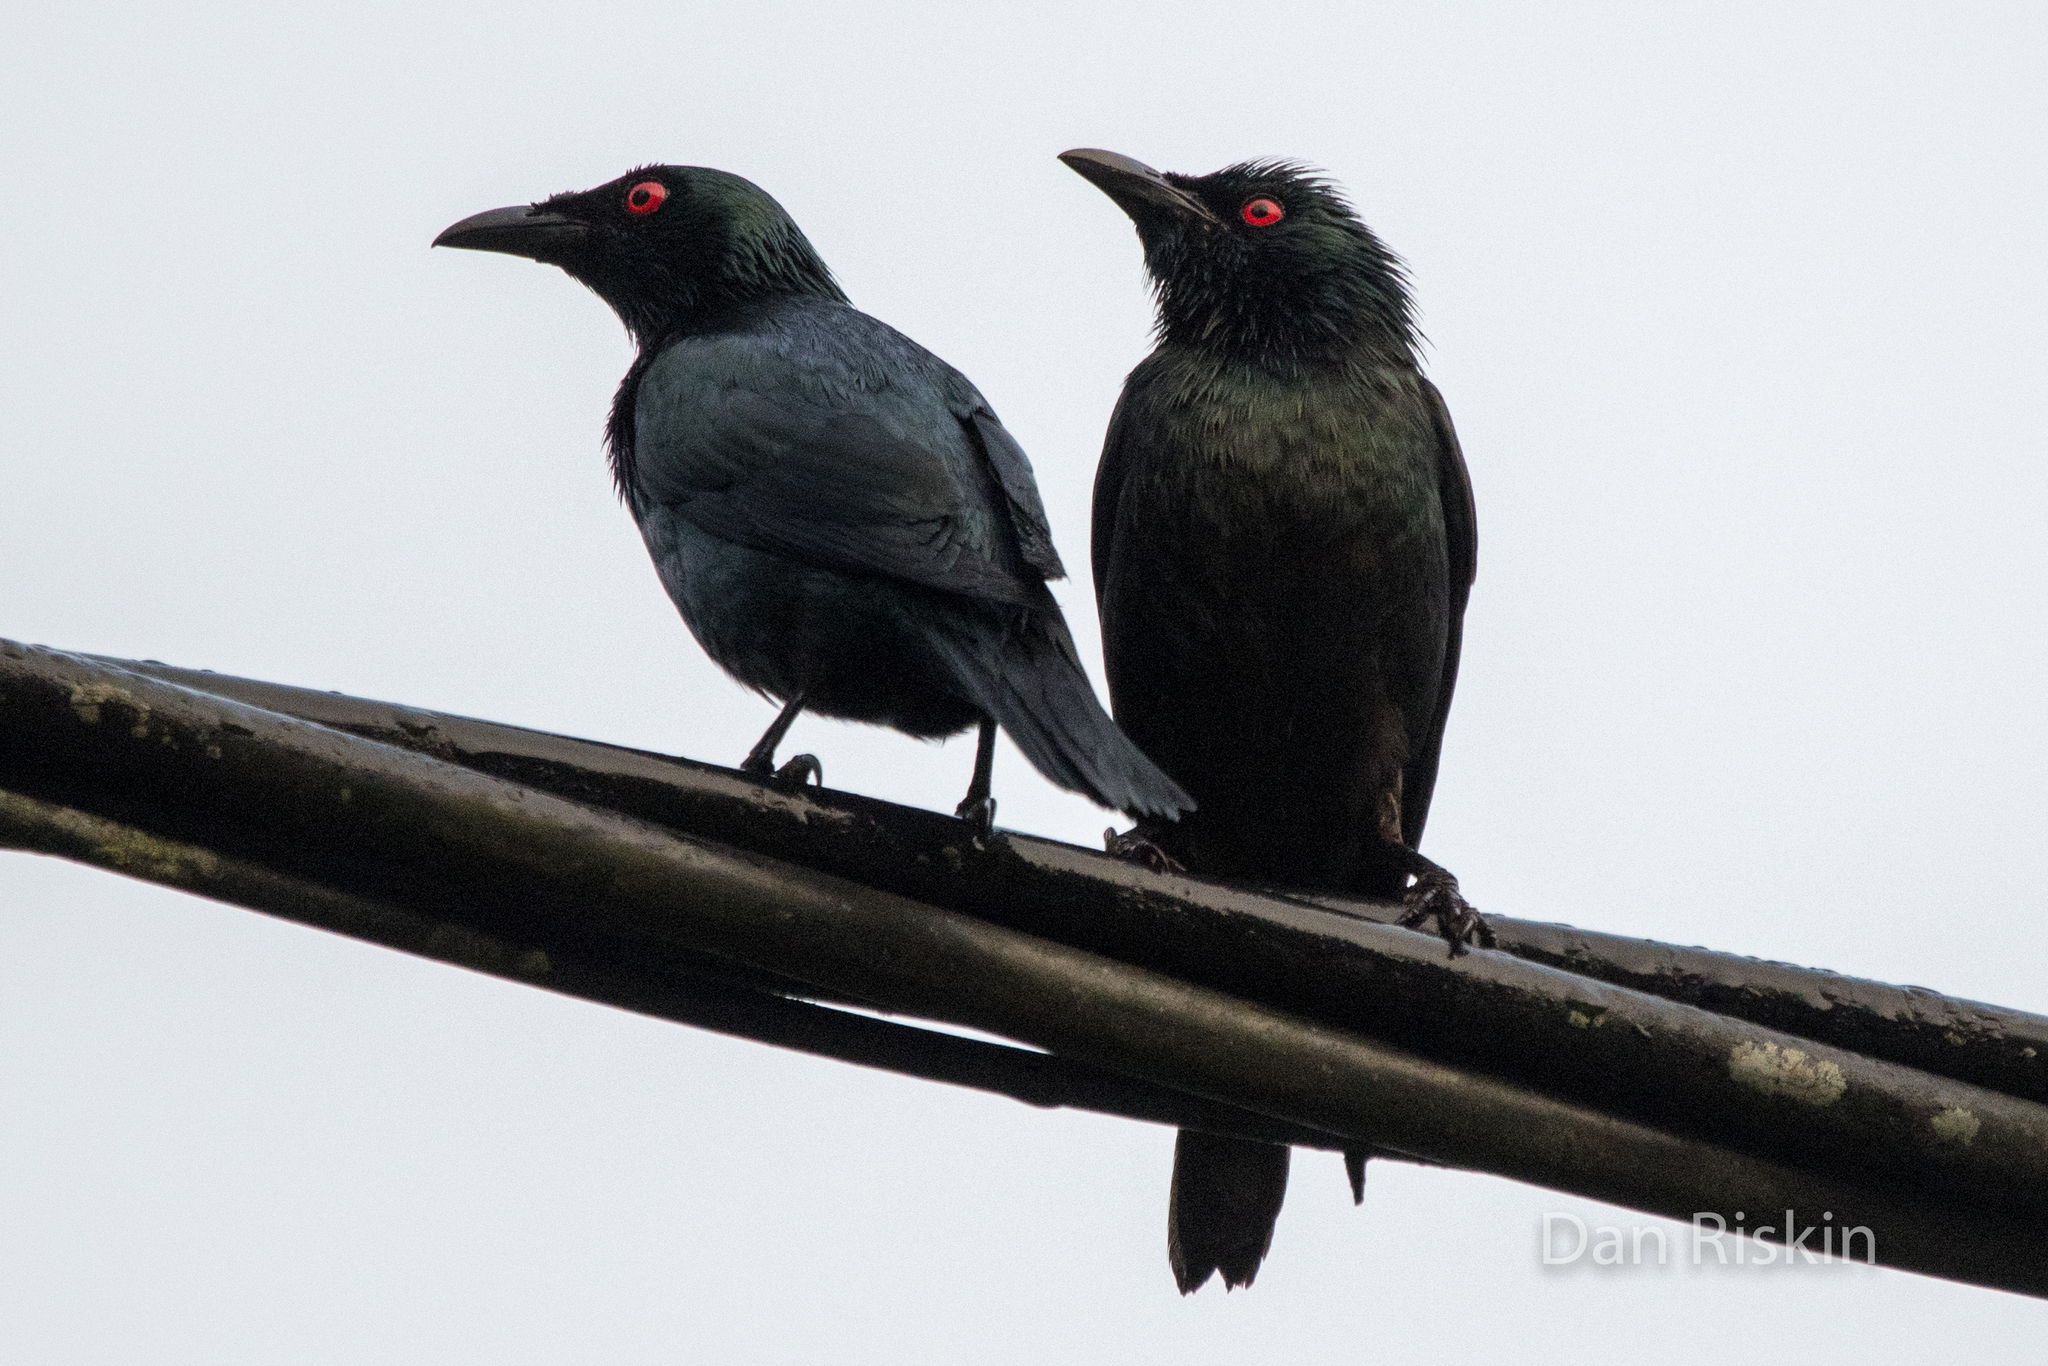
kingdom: Animalia
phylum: Chordata
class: Aves
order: Passeriformes
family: Sturnidae
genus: Aplonis
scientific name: Aplonis panayensis
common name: Asian glossy starling
